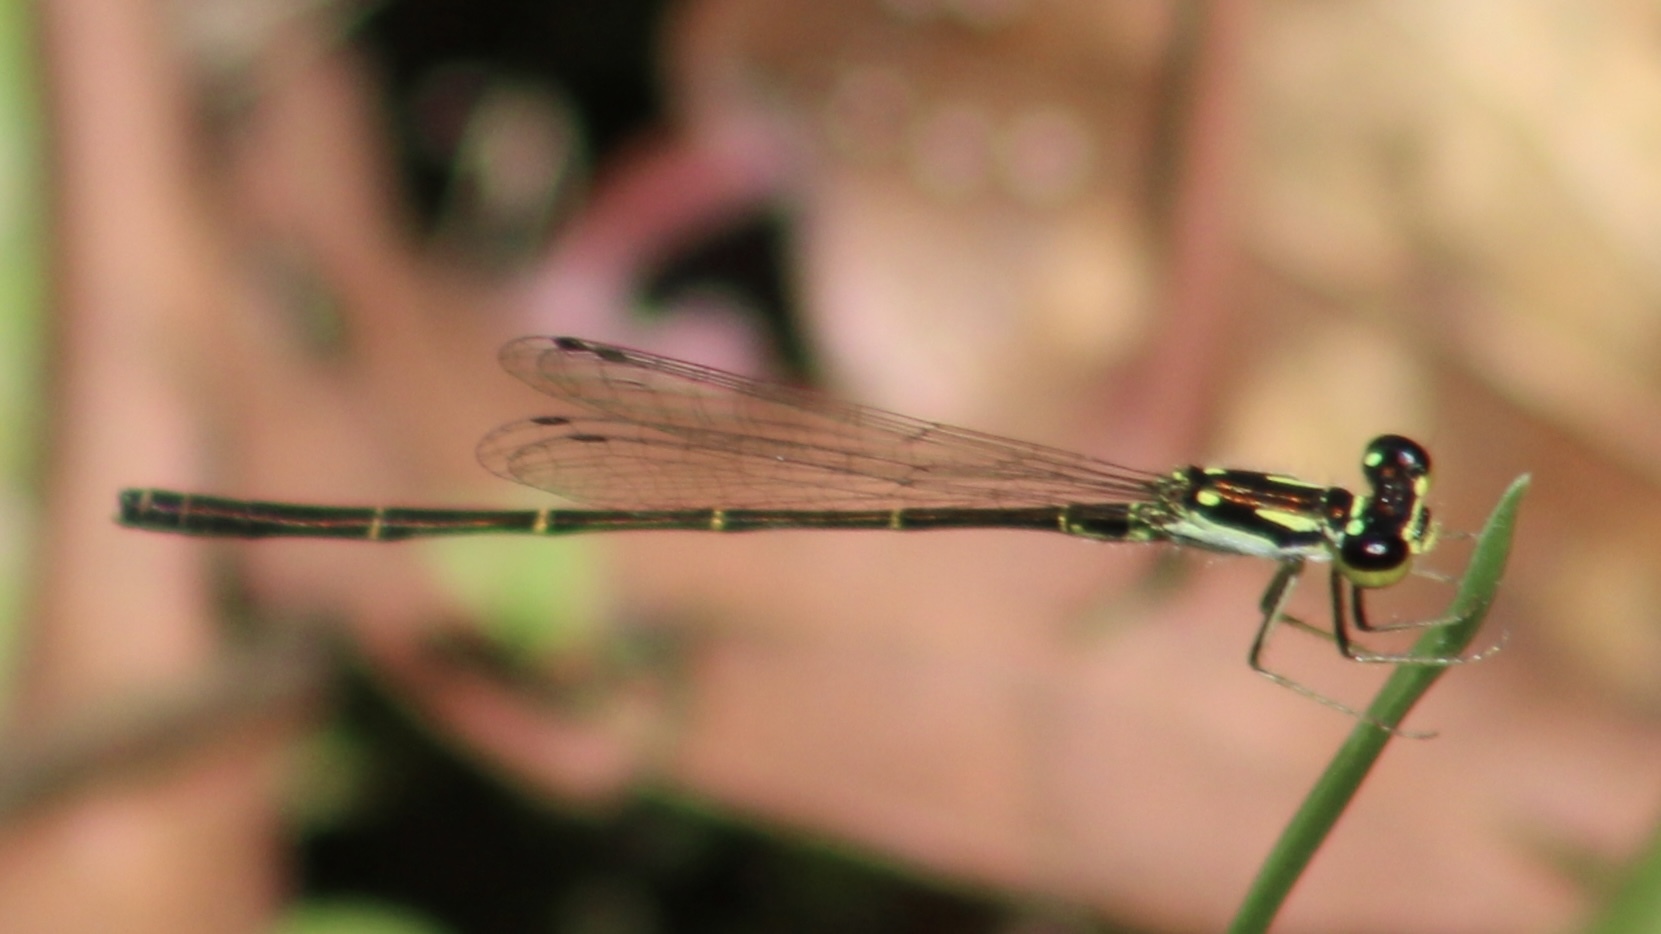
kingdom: Animalia
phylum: Arthropoda
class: Insecta
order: Odonata
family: Coenagrionidae
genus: Ischnura
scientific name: Ischnura posita
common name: Fragile forktail
